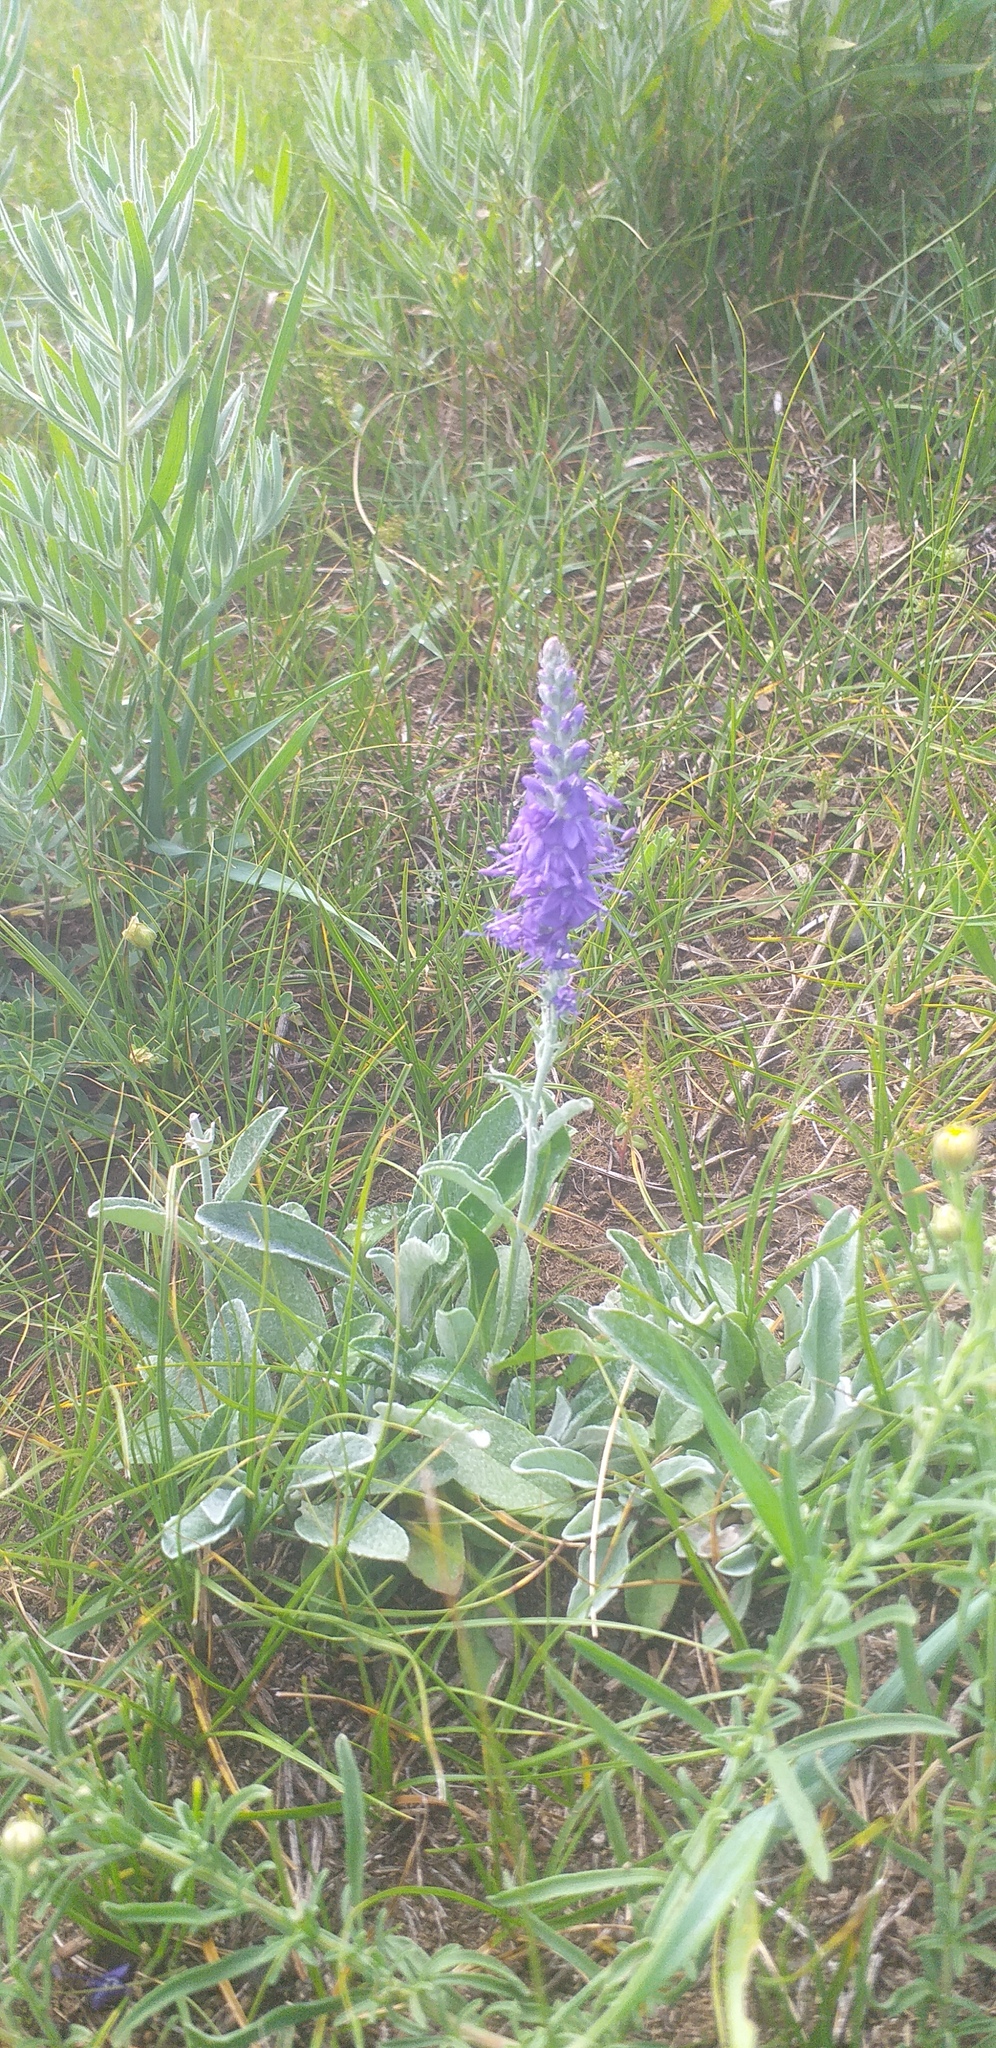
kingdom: Plantae
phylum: Tracheophyta
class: Magnoliopsida
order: Lamiales
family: Plantaginaceae
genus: Veronica
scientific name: Veronica incana
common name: Silver speedwell
